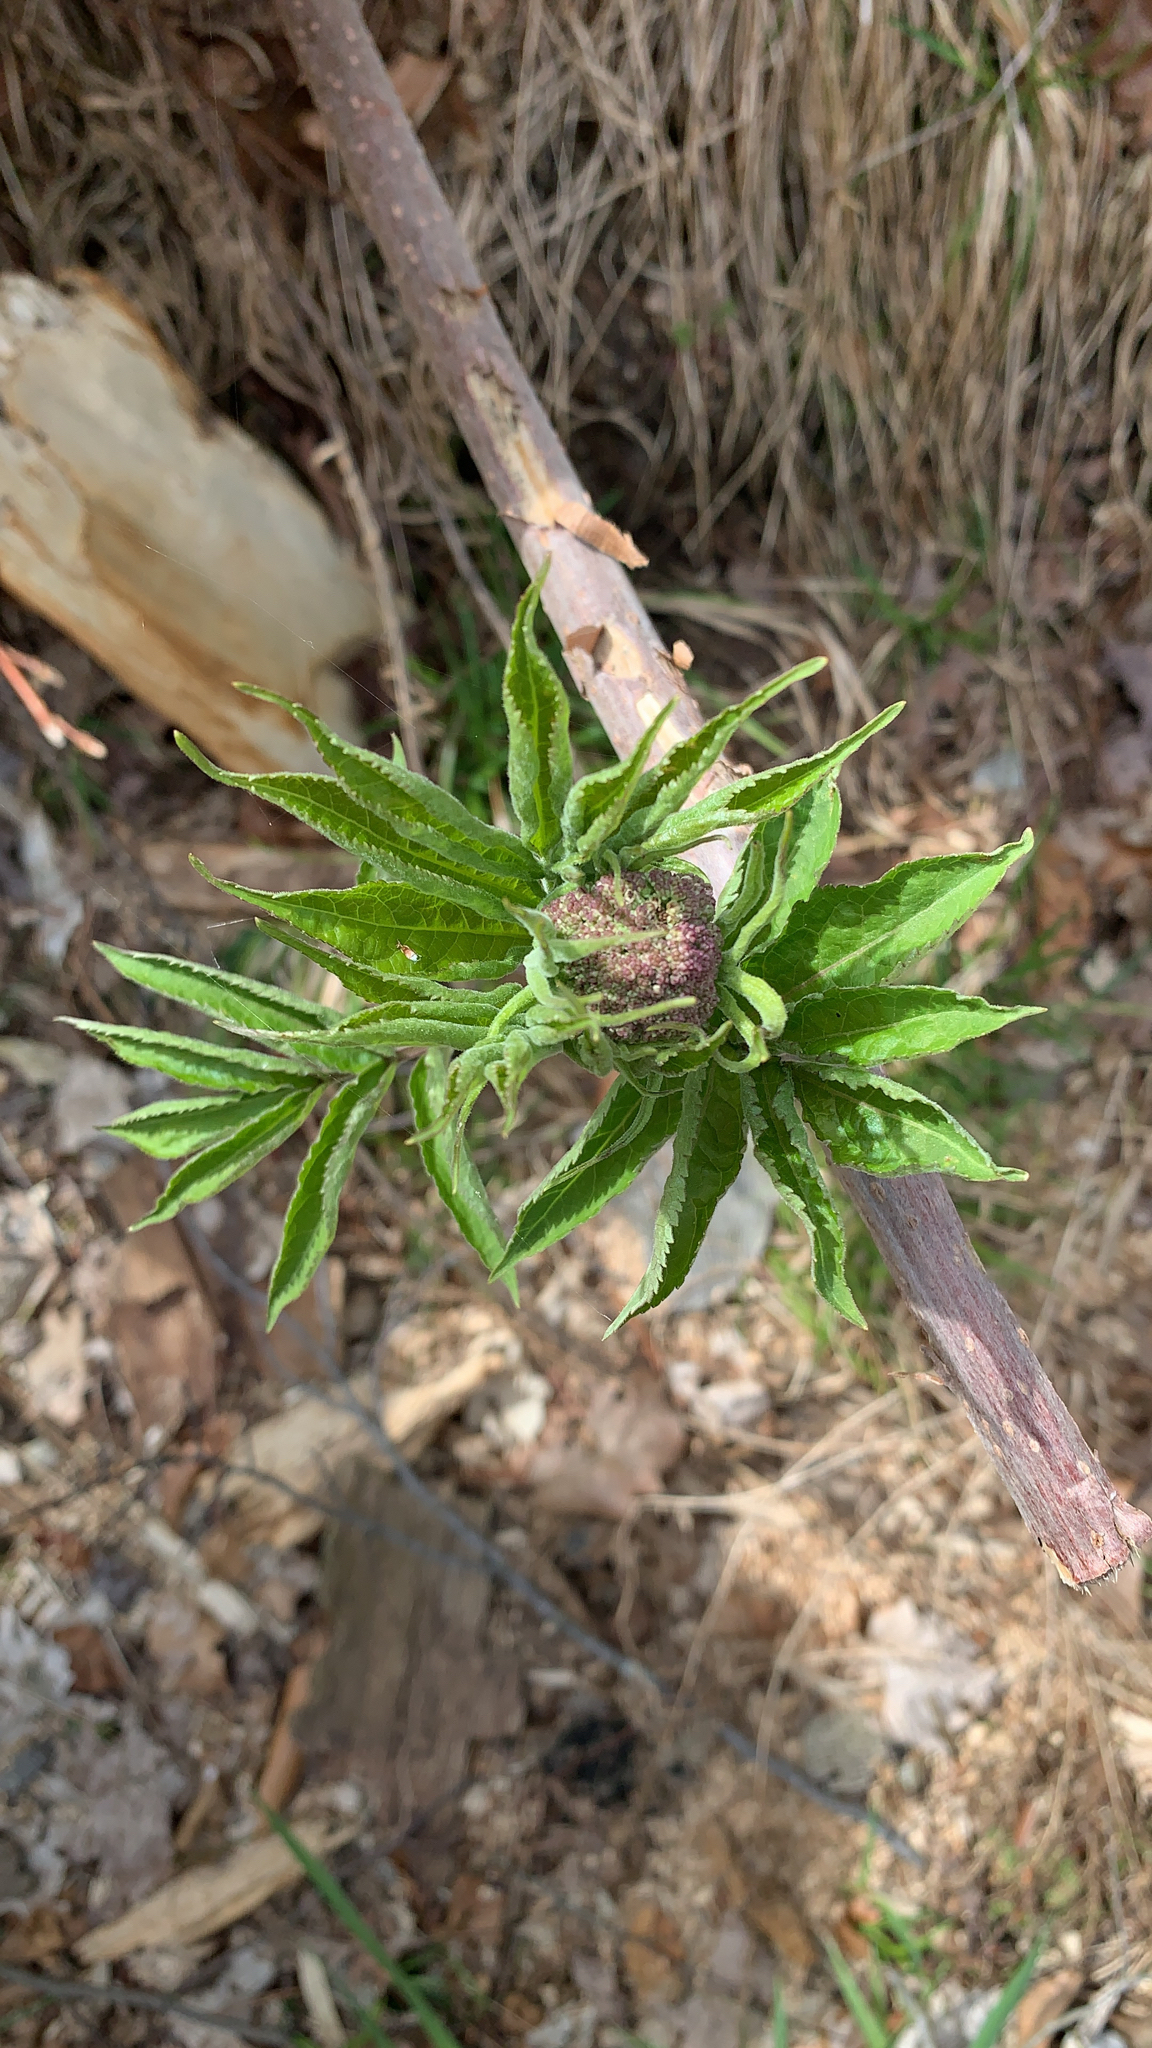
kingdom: Plantae
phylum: Tracheophyta
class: Magnoliopsida
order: Dipsacales
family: Viburnaceae
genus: Sambucus
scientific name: Sambucus racemosa
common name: Red-berried elder
